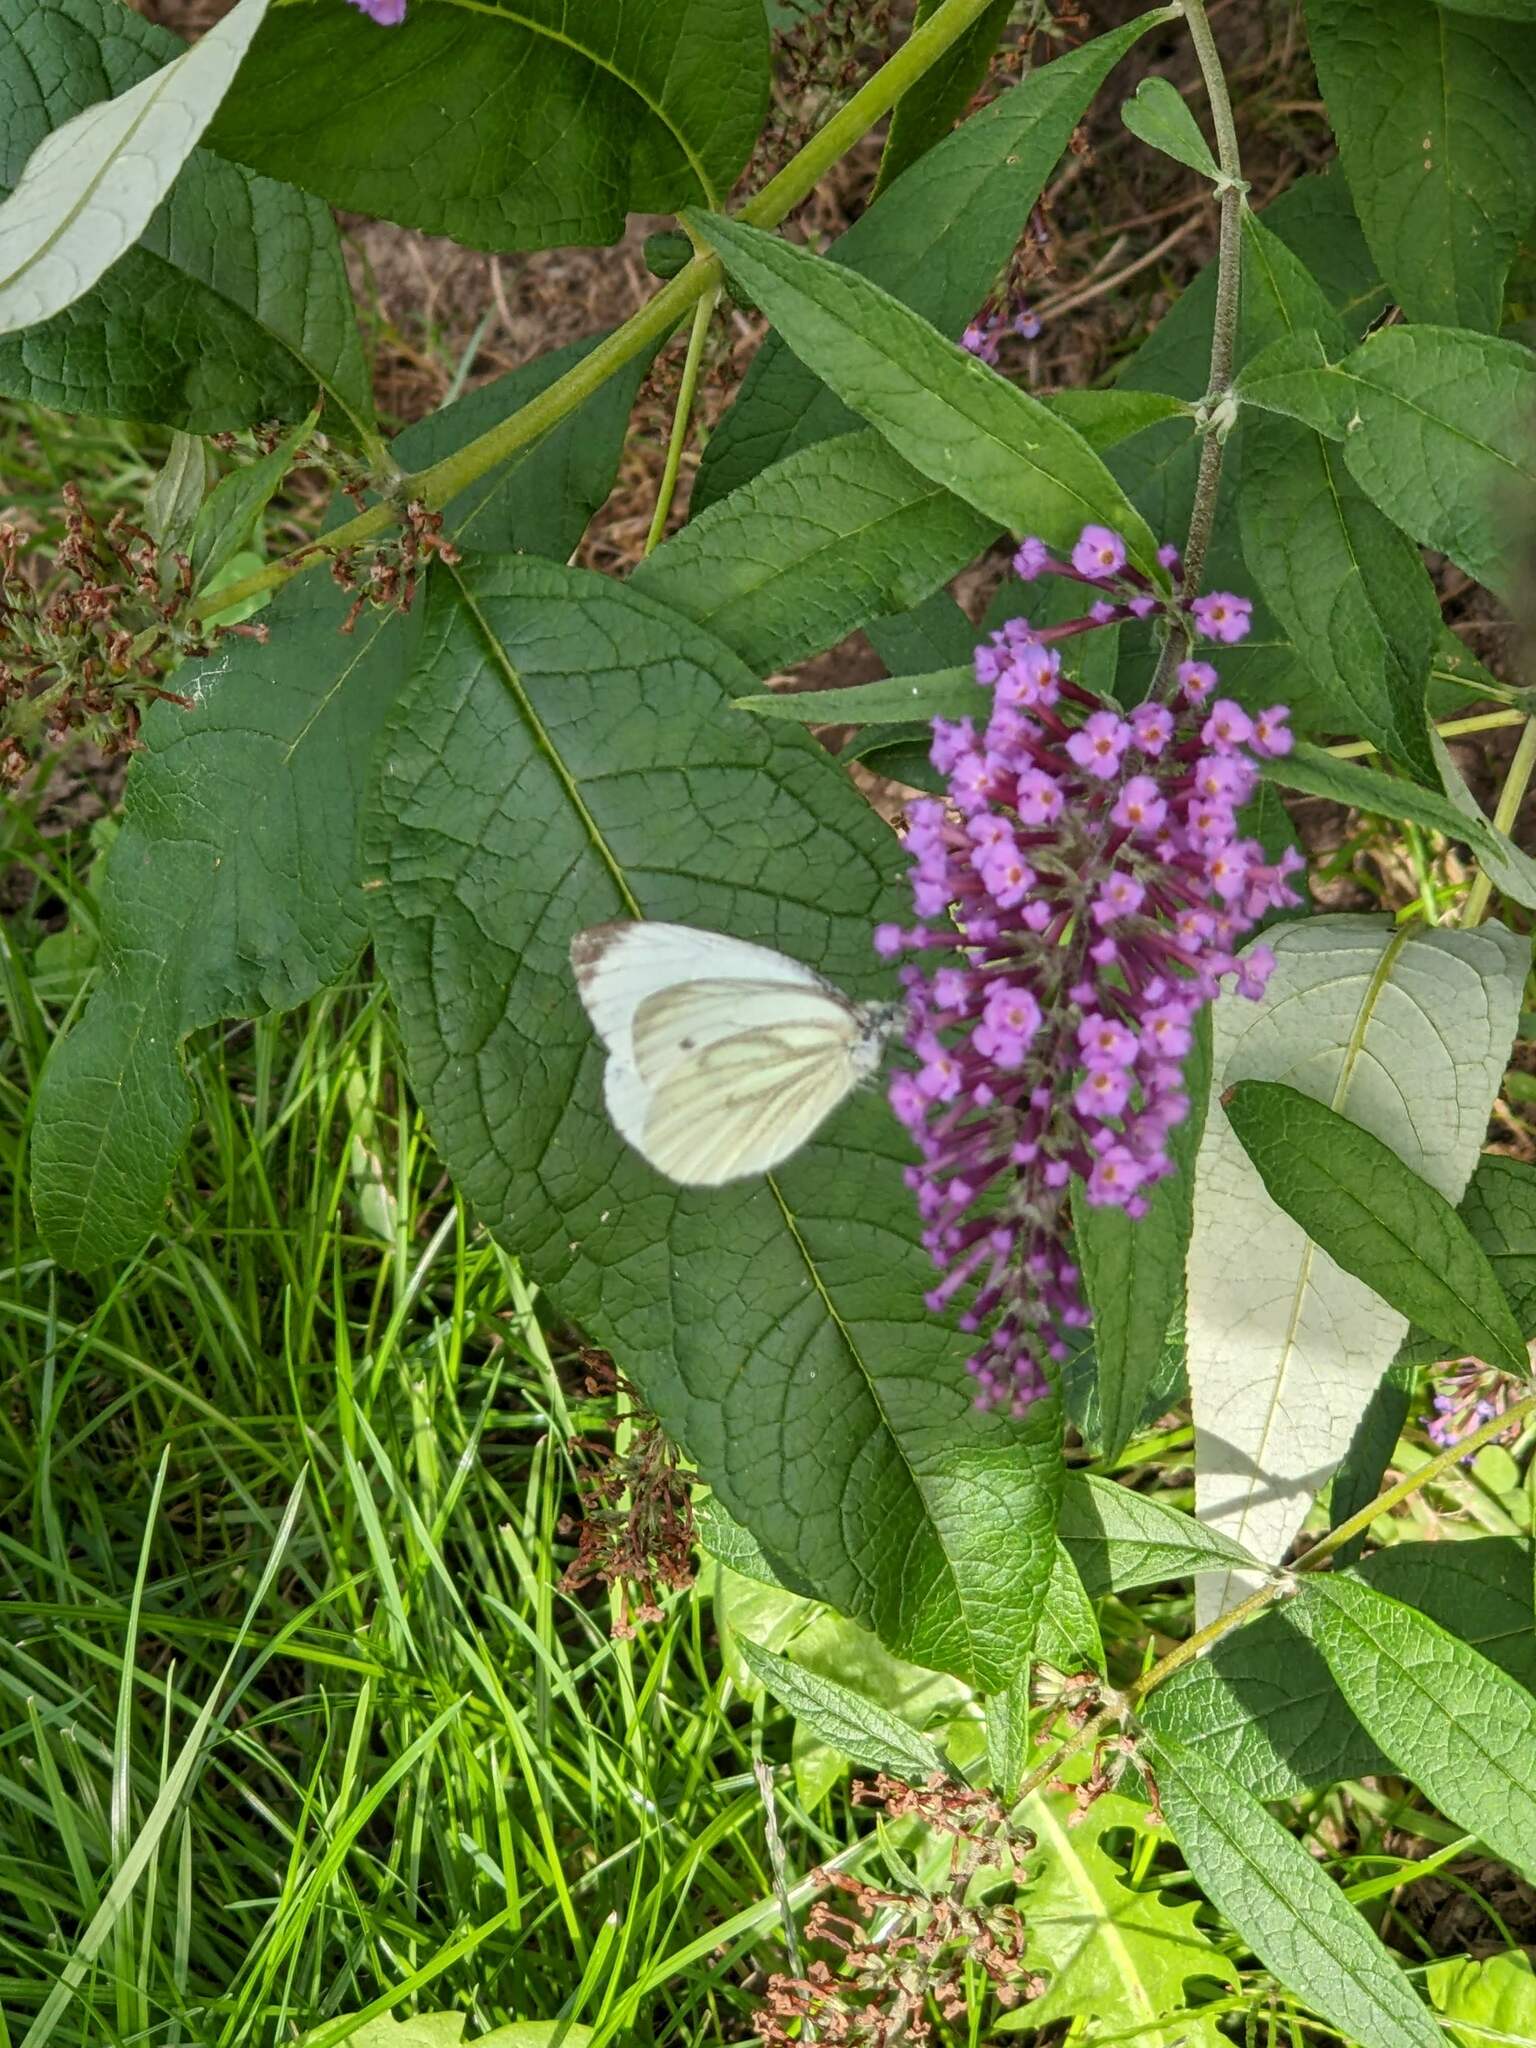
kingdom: Animalia
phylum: Arthropoda
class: Insecta
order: Lepidoptera
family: Pieridae
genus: Pieris
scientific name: Pieris napi
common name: Green-veined white
